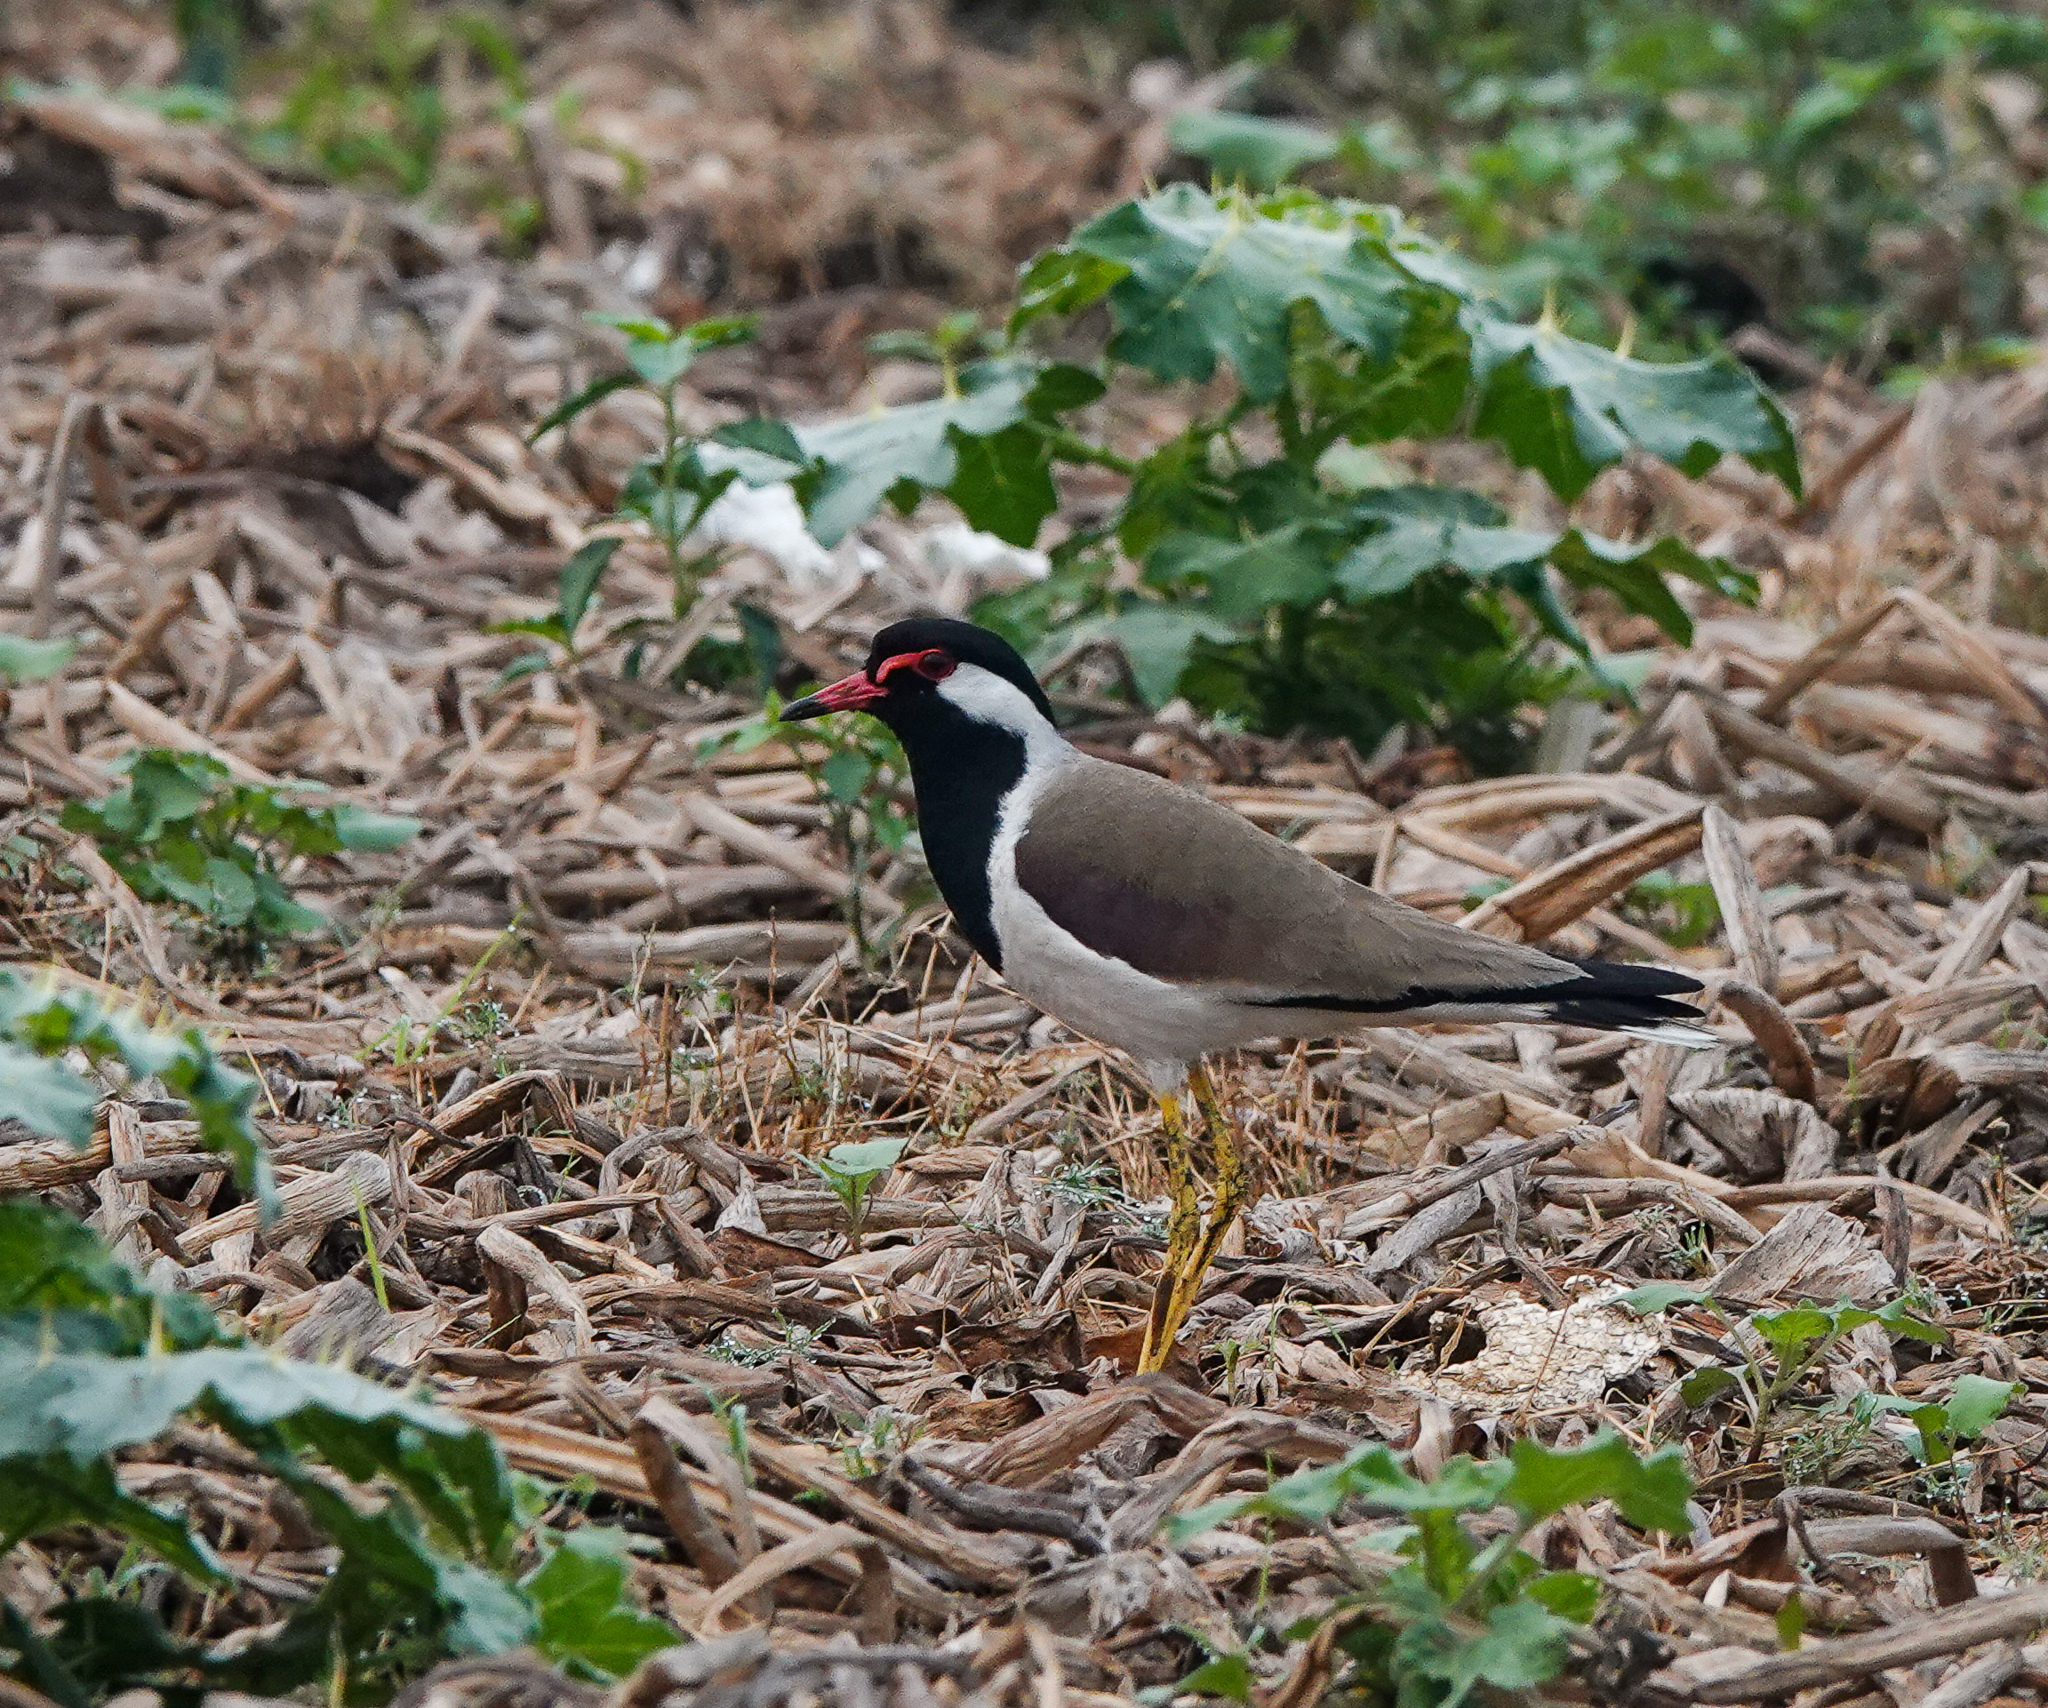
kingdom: Animalia
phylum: Chordata
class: Aves
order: Charadriiformes
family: Charadriidae
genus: Vanellus
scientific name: Vanellus indicus
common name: Red-wattled lapwing
